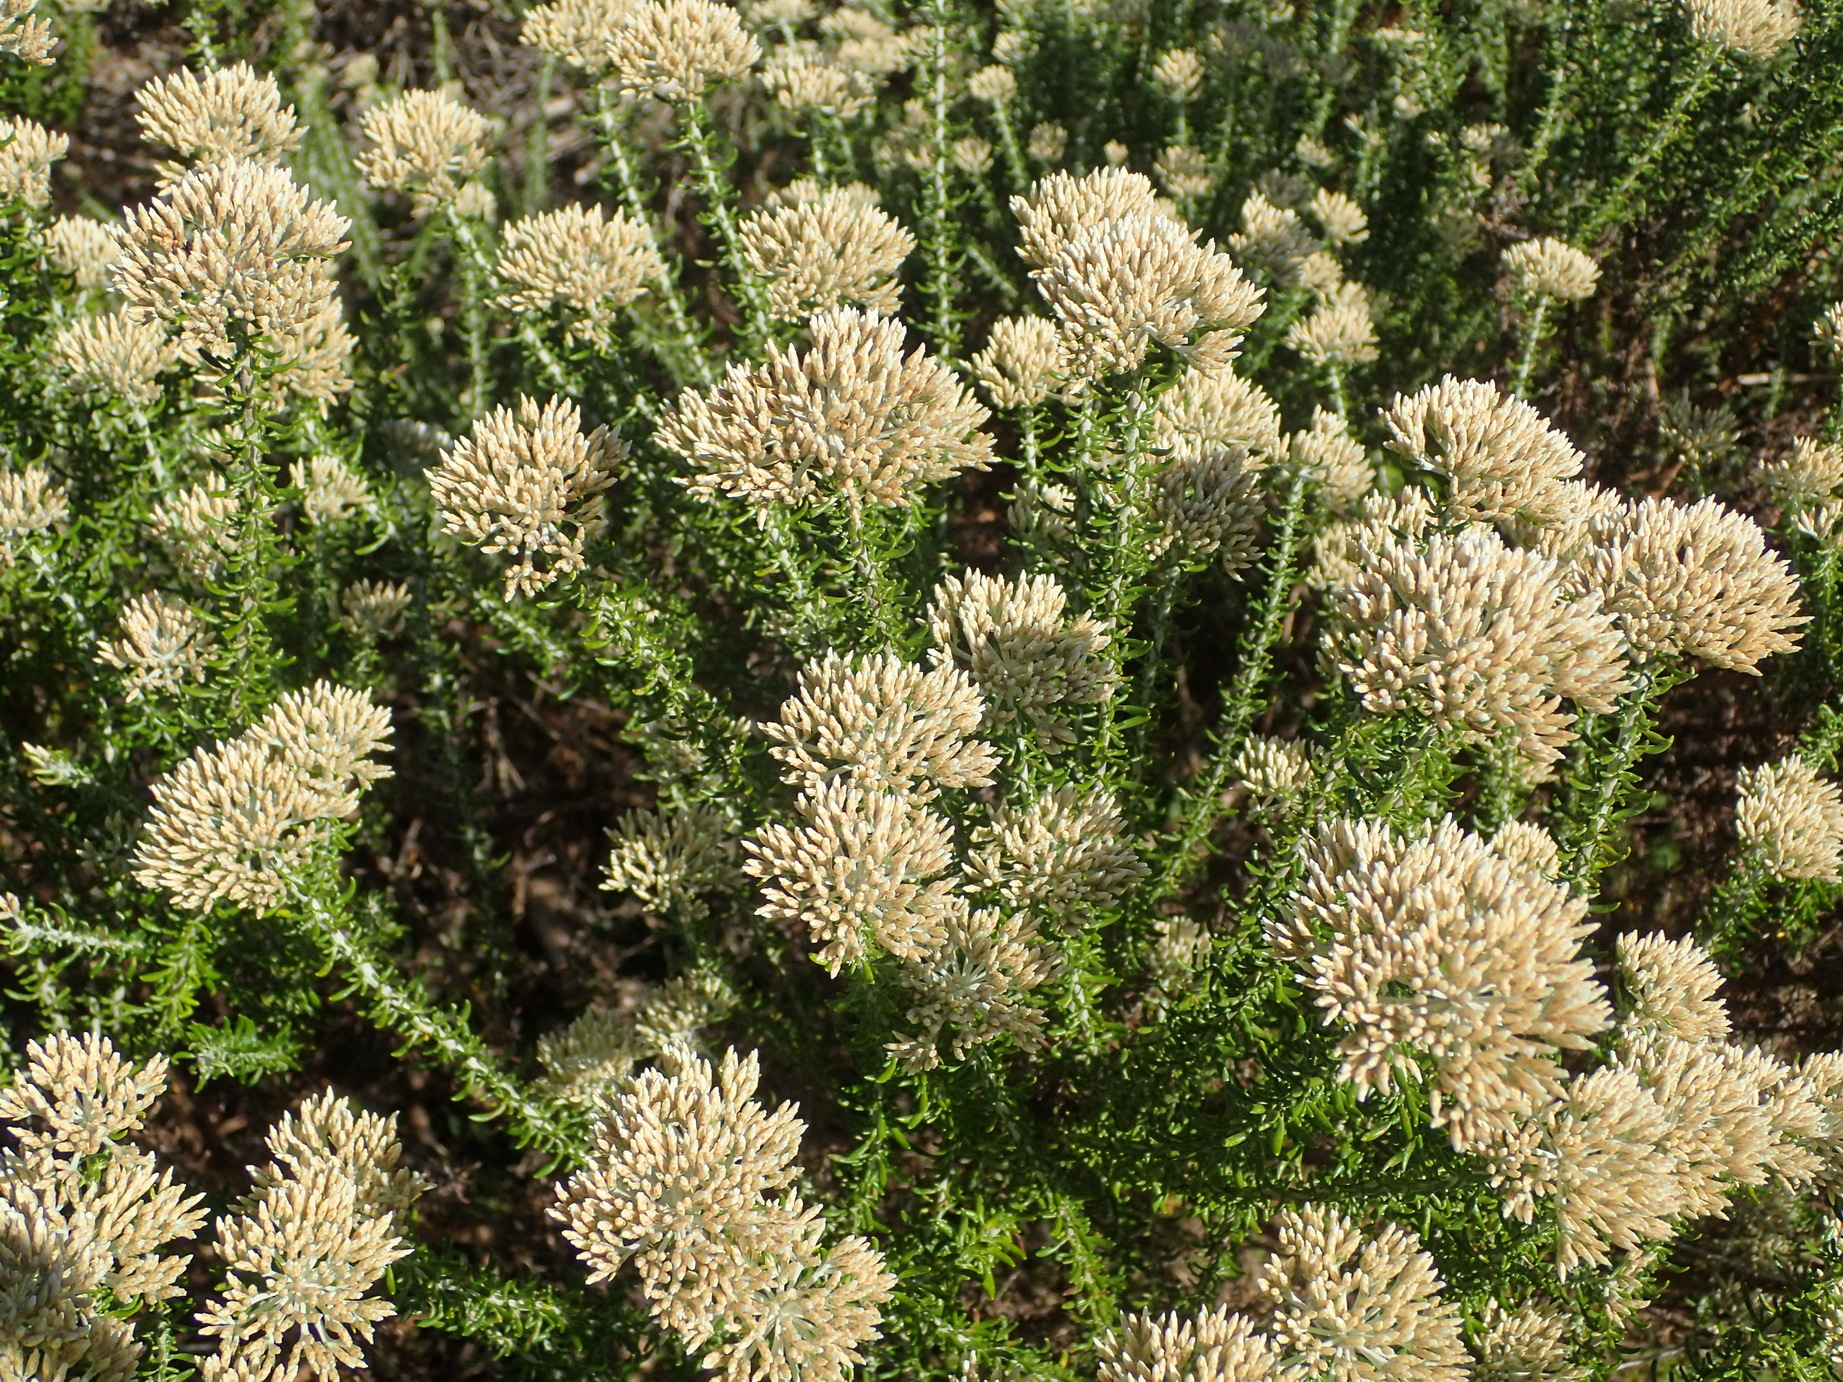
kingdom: Plantae
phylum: Tracheophyta
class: Magnoliopsida
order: Asterales
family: Asteraceae
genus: Metalasia
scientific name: Metalasia muricata
